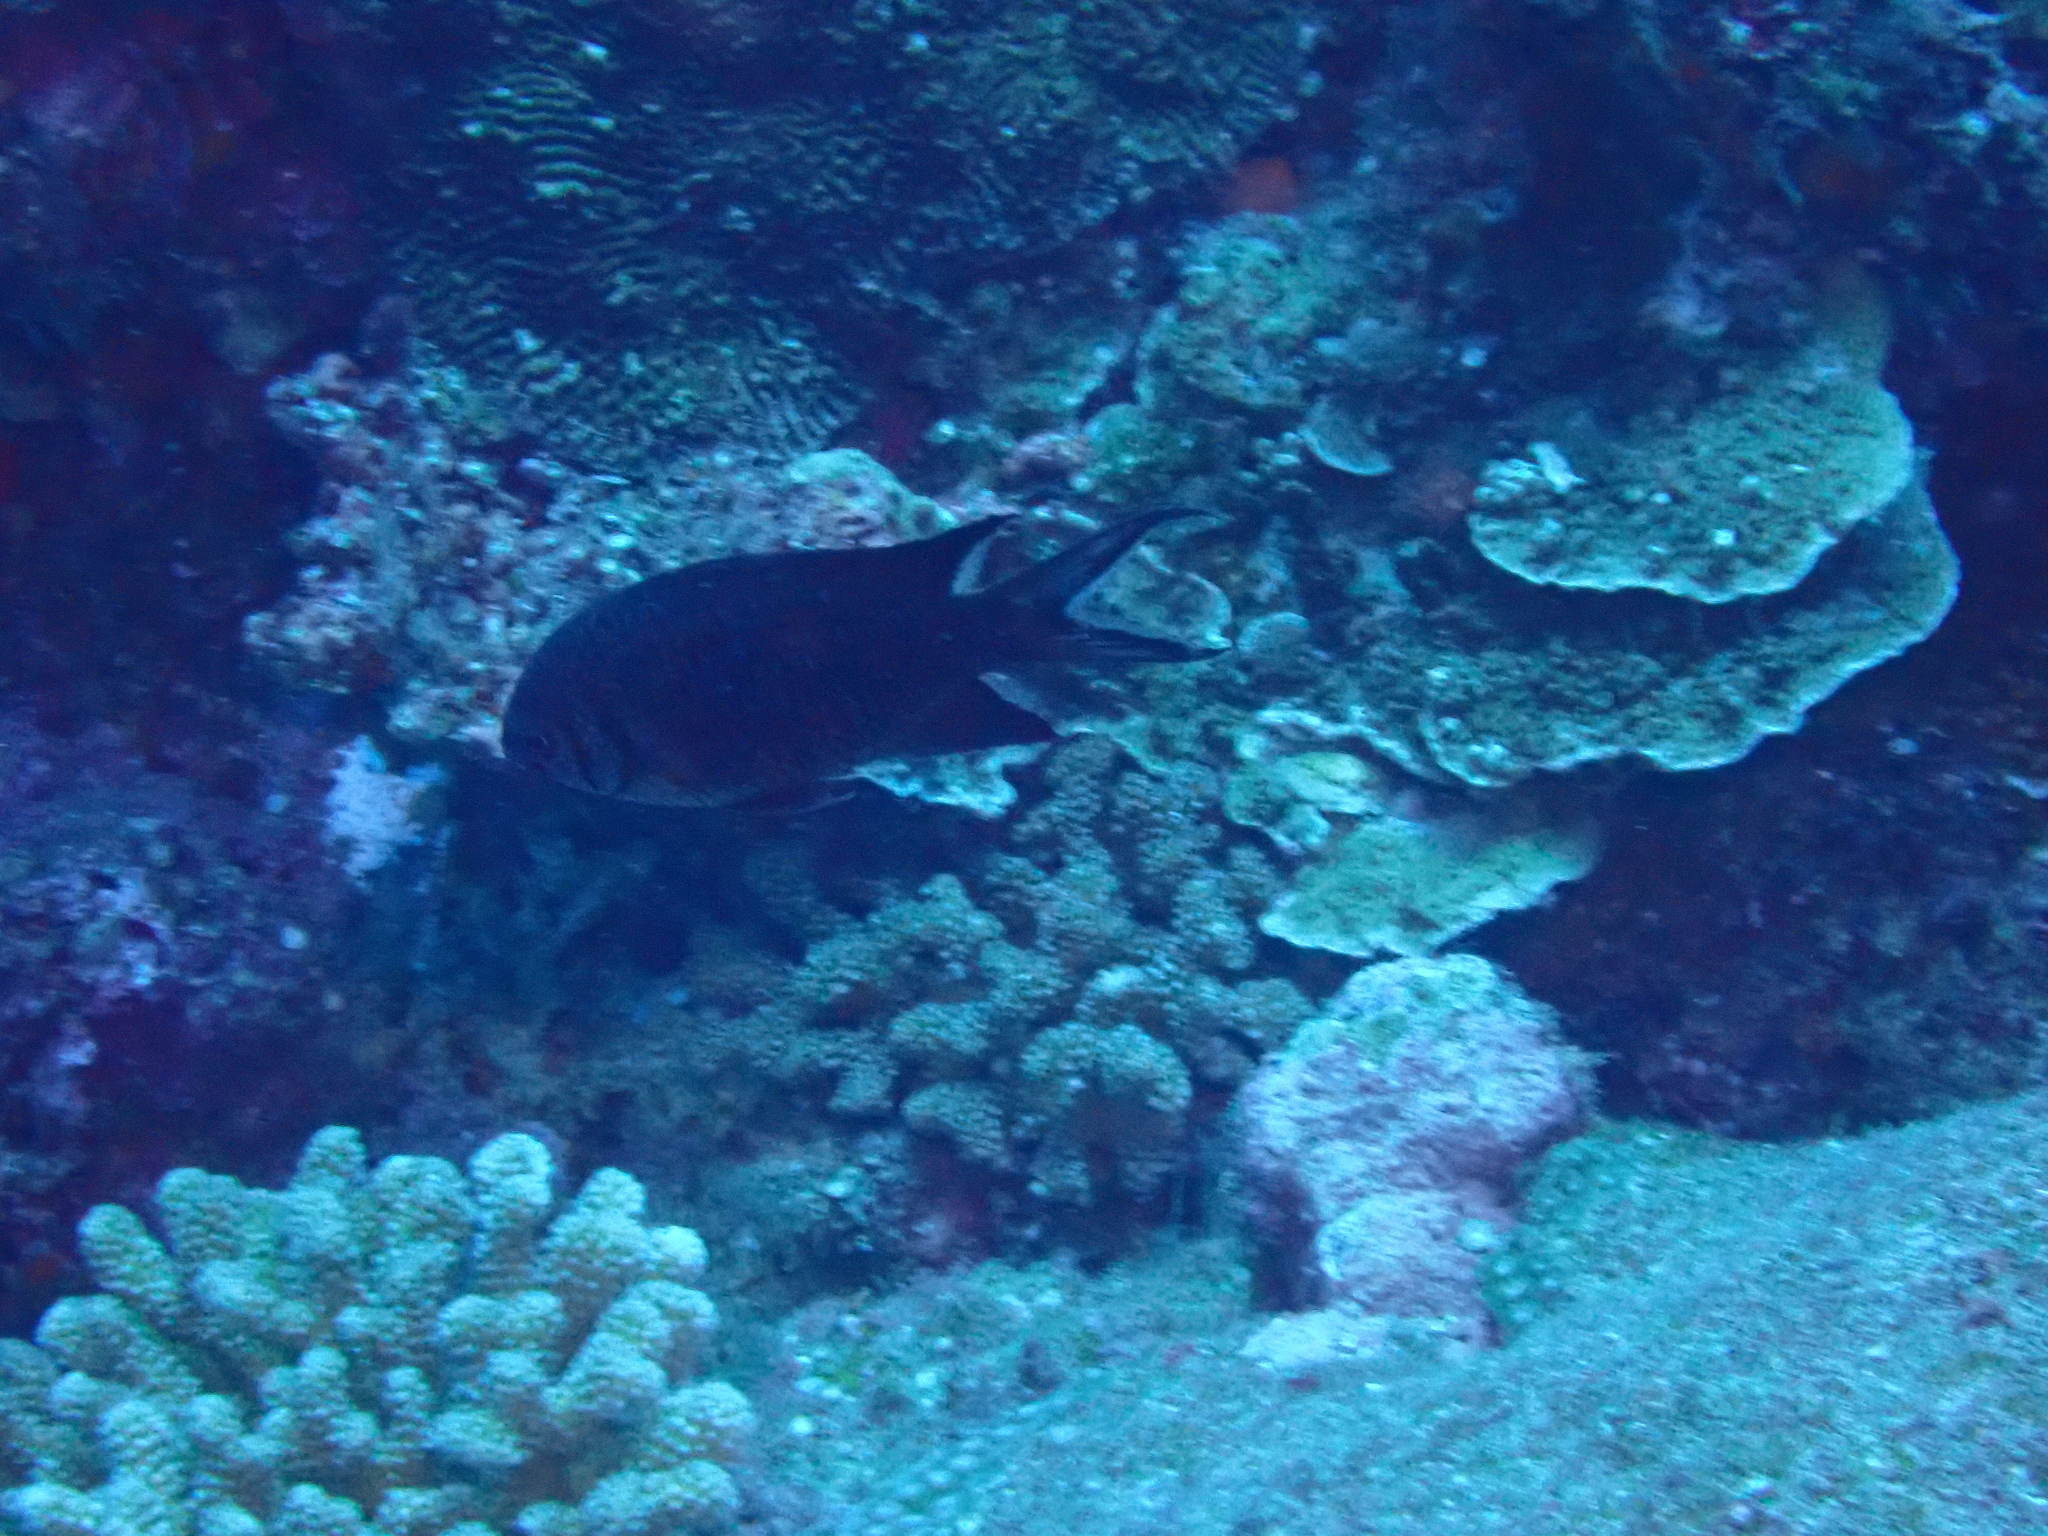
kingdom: Animalia
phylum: Chordata
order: Perciformes
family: Pomacentridae
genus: Chromis
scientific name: Chromis xanthura
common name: Black chromis
